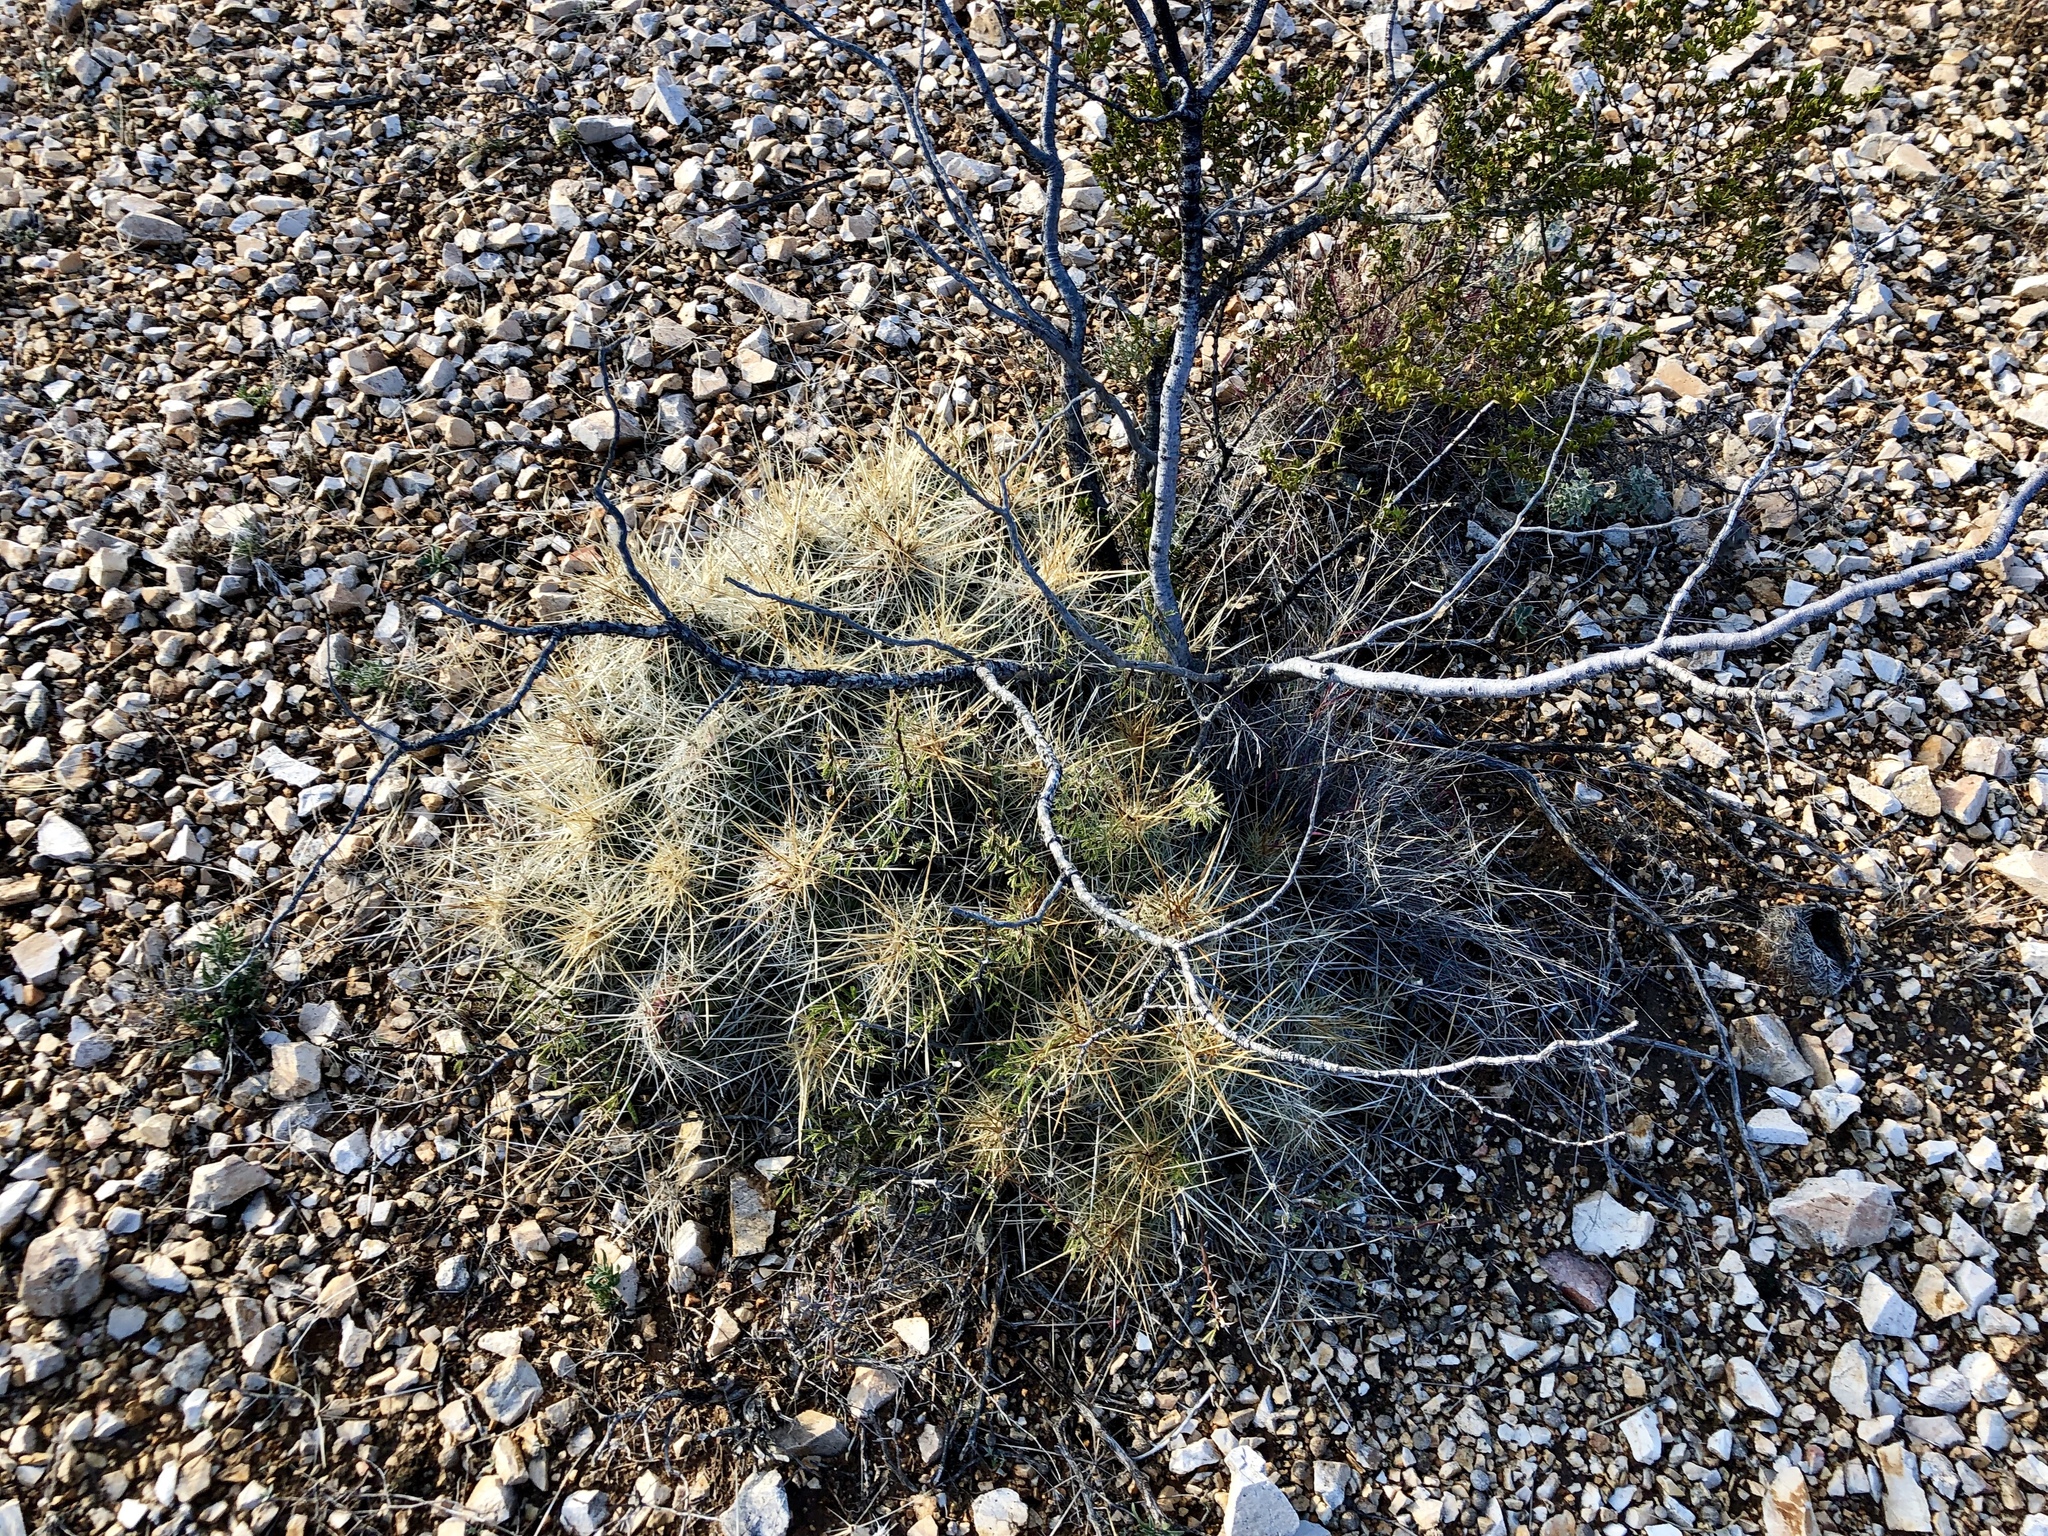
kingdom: Plantae
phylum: Tracheophyta
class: Magnoliopsida
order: Caryophyllales
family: Cactaceae
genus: Echinocereus
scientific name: Echinocereus stramineus
